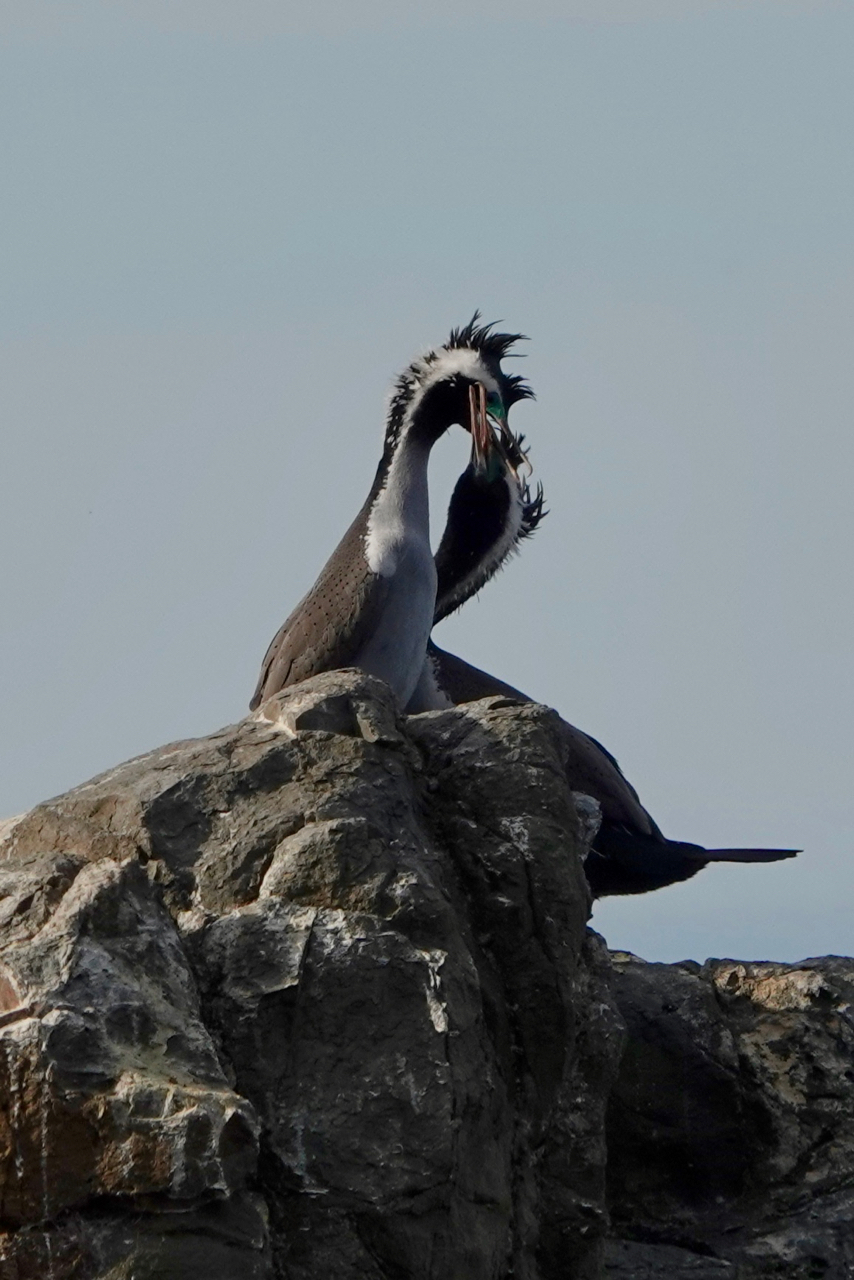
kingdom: Animalia
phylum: Chordata
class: Aves
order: Suliformes
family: Phalacrocoracidae
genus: Phalacrocorax
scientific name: Phalacrocorax punctatus
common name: Spotted shag
